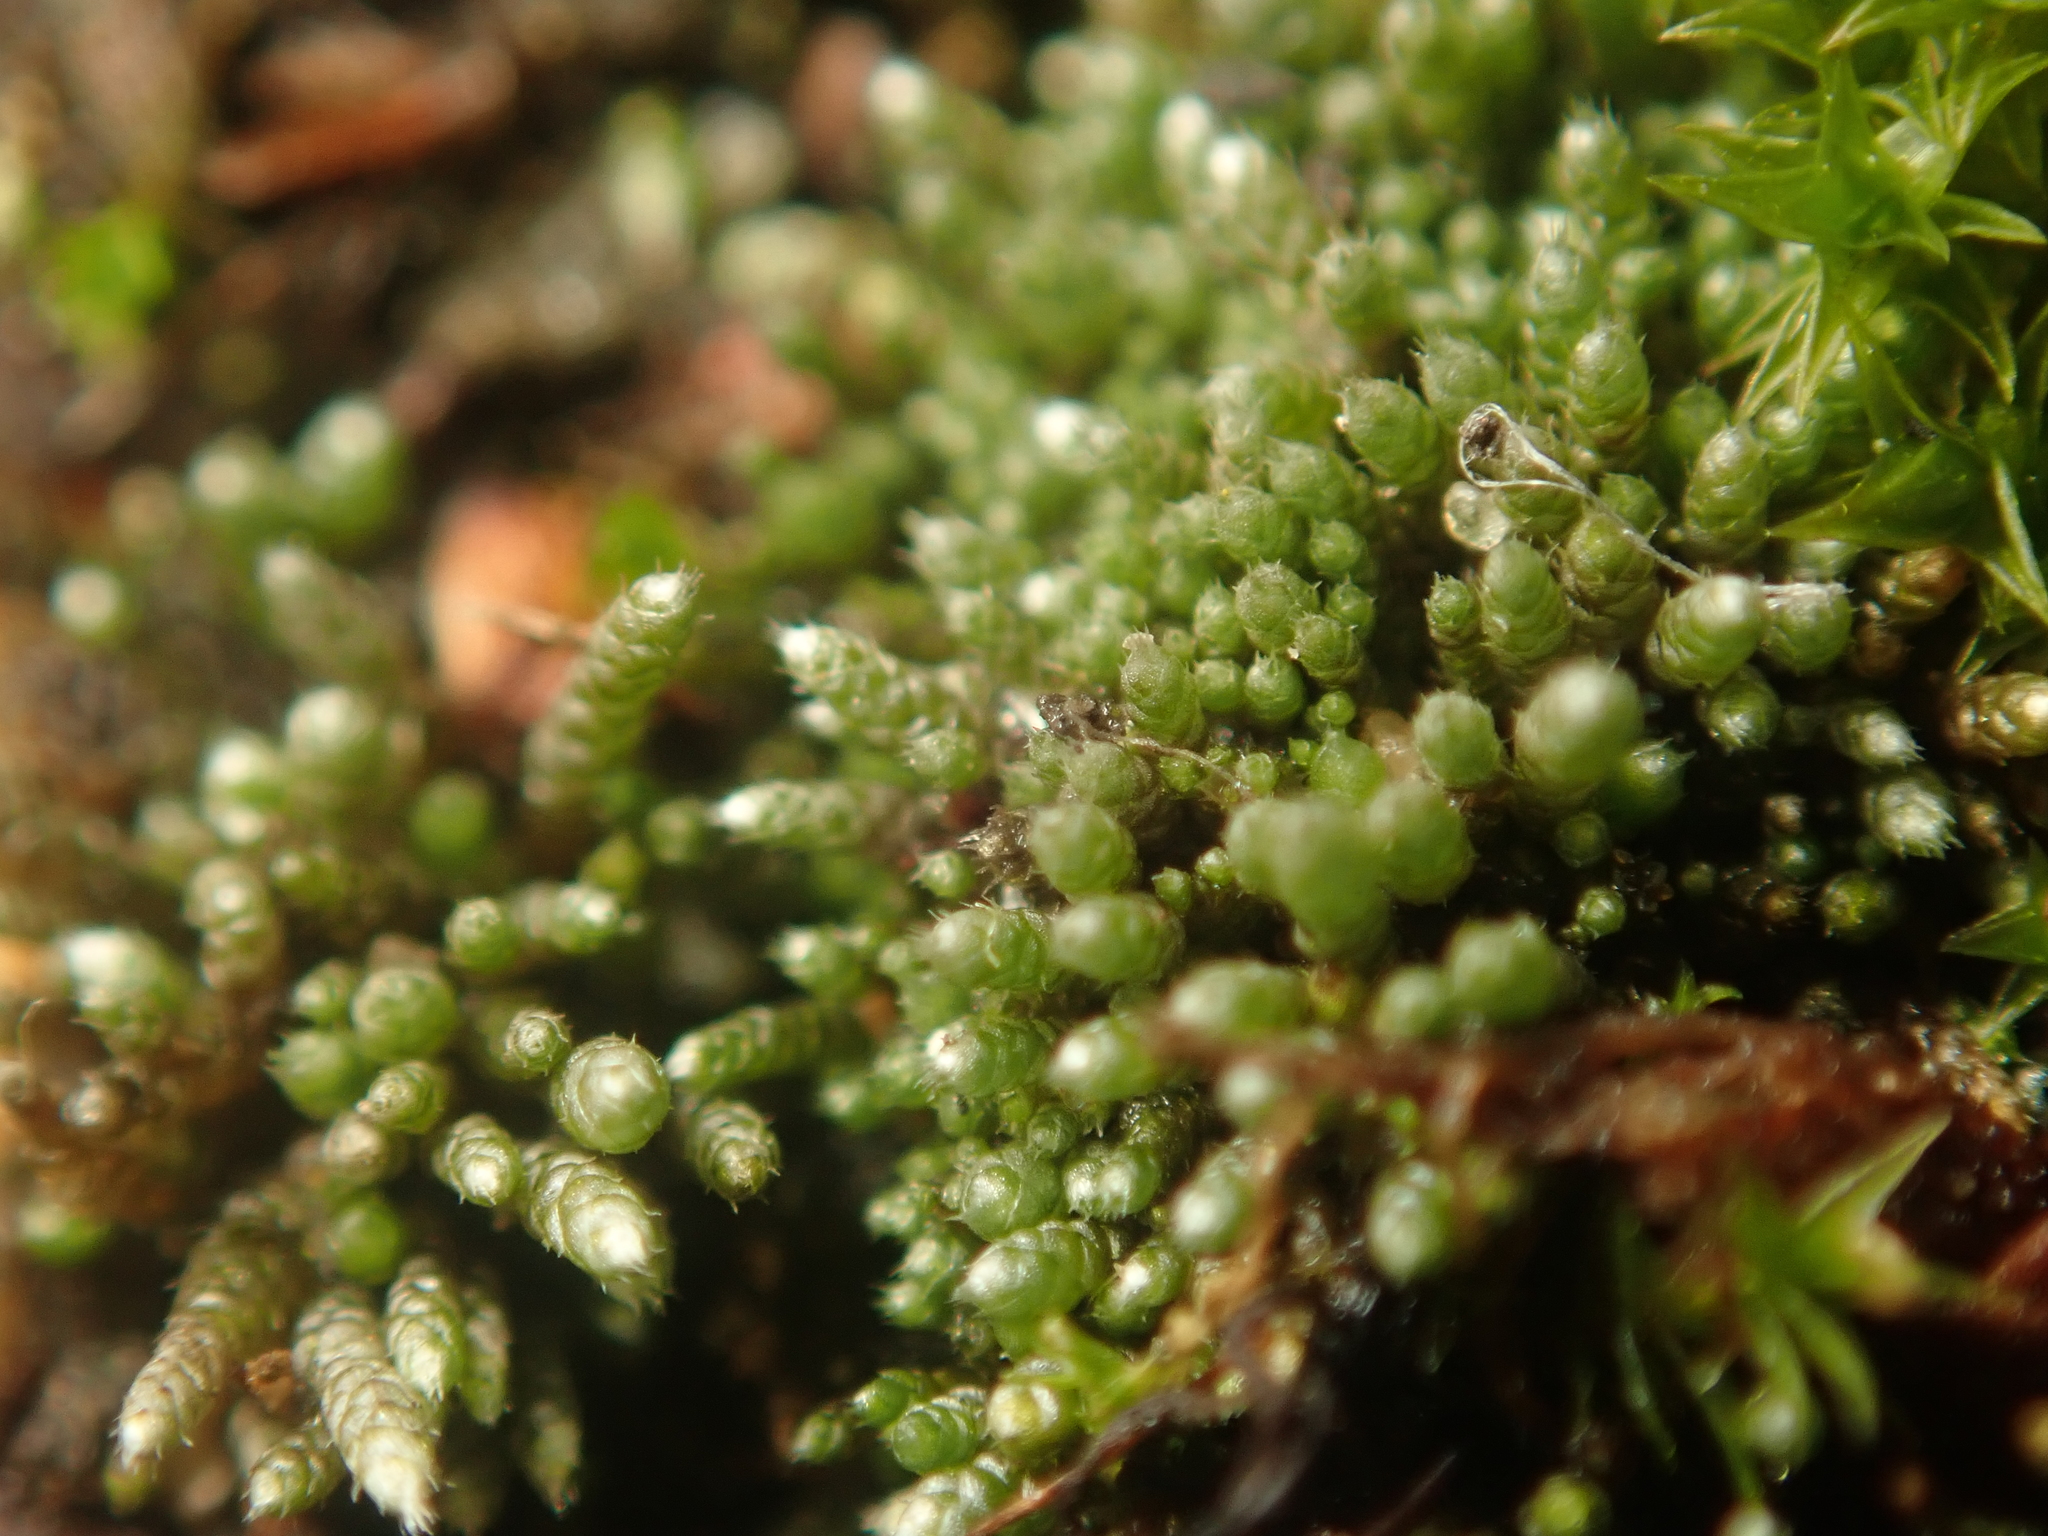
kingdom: Plantae
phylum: Bryophyta
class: Bryopsida
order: Bryales
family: Bryaceae
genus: Bryum
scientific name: Bryum argenteum
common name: Silver-moss
